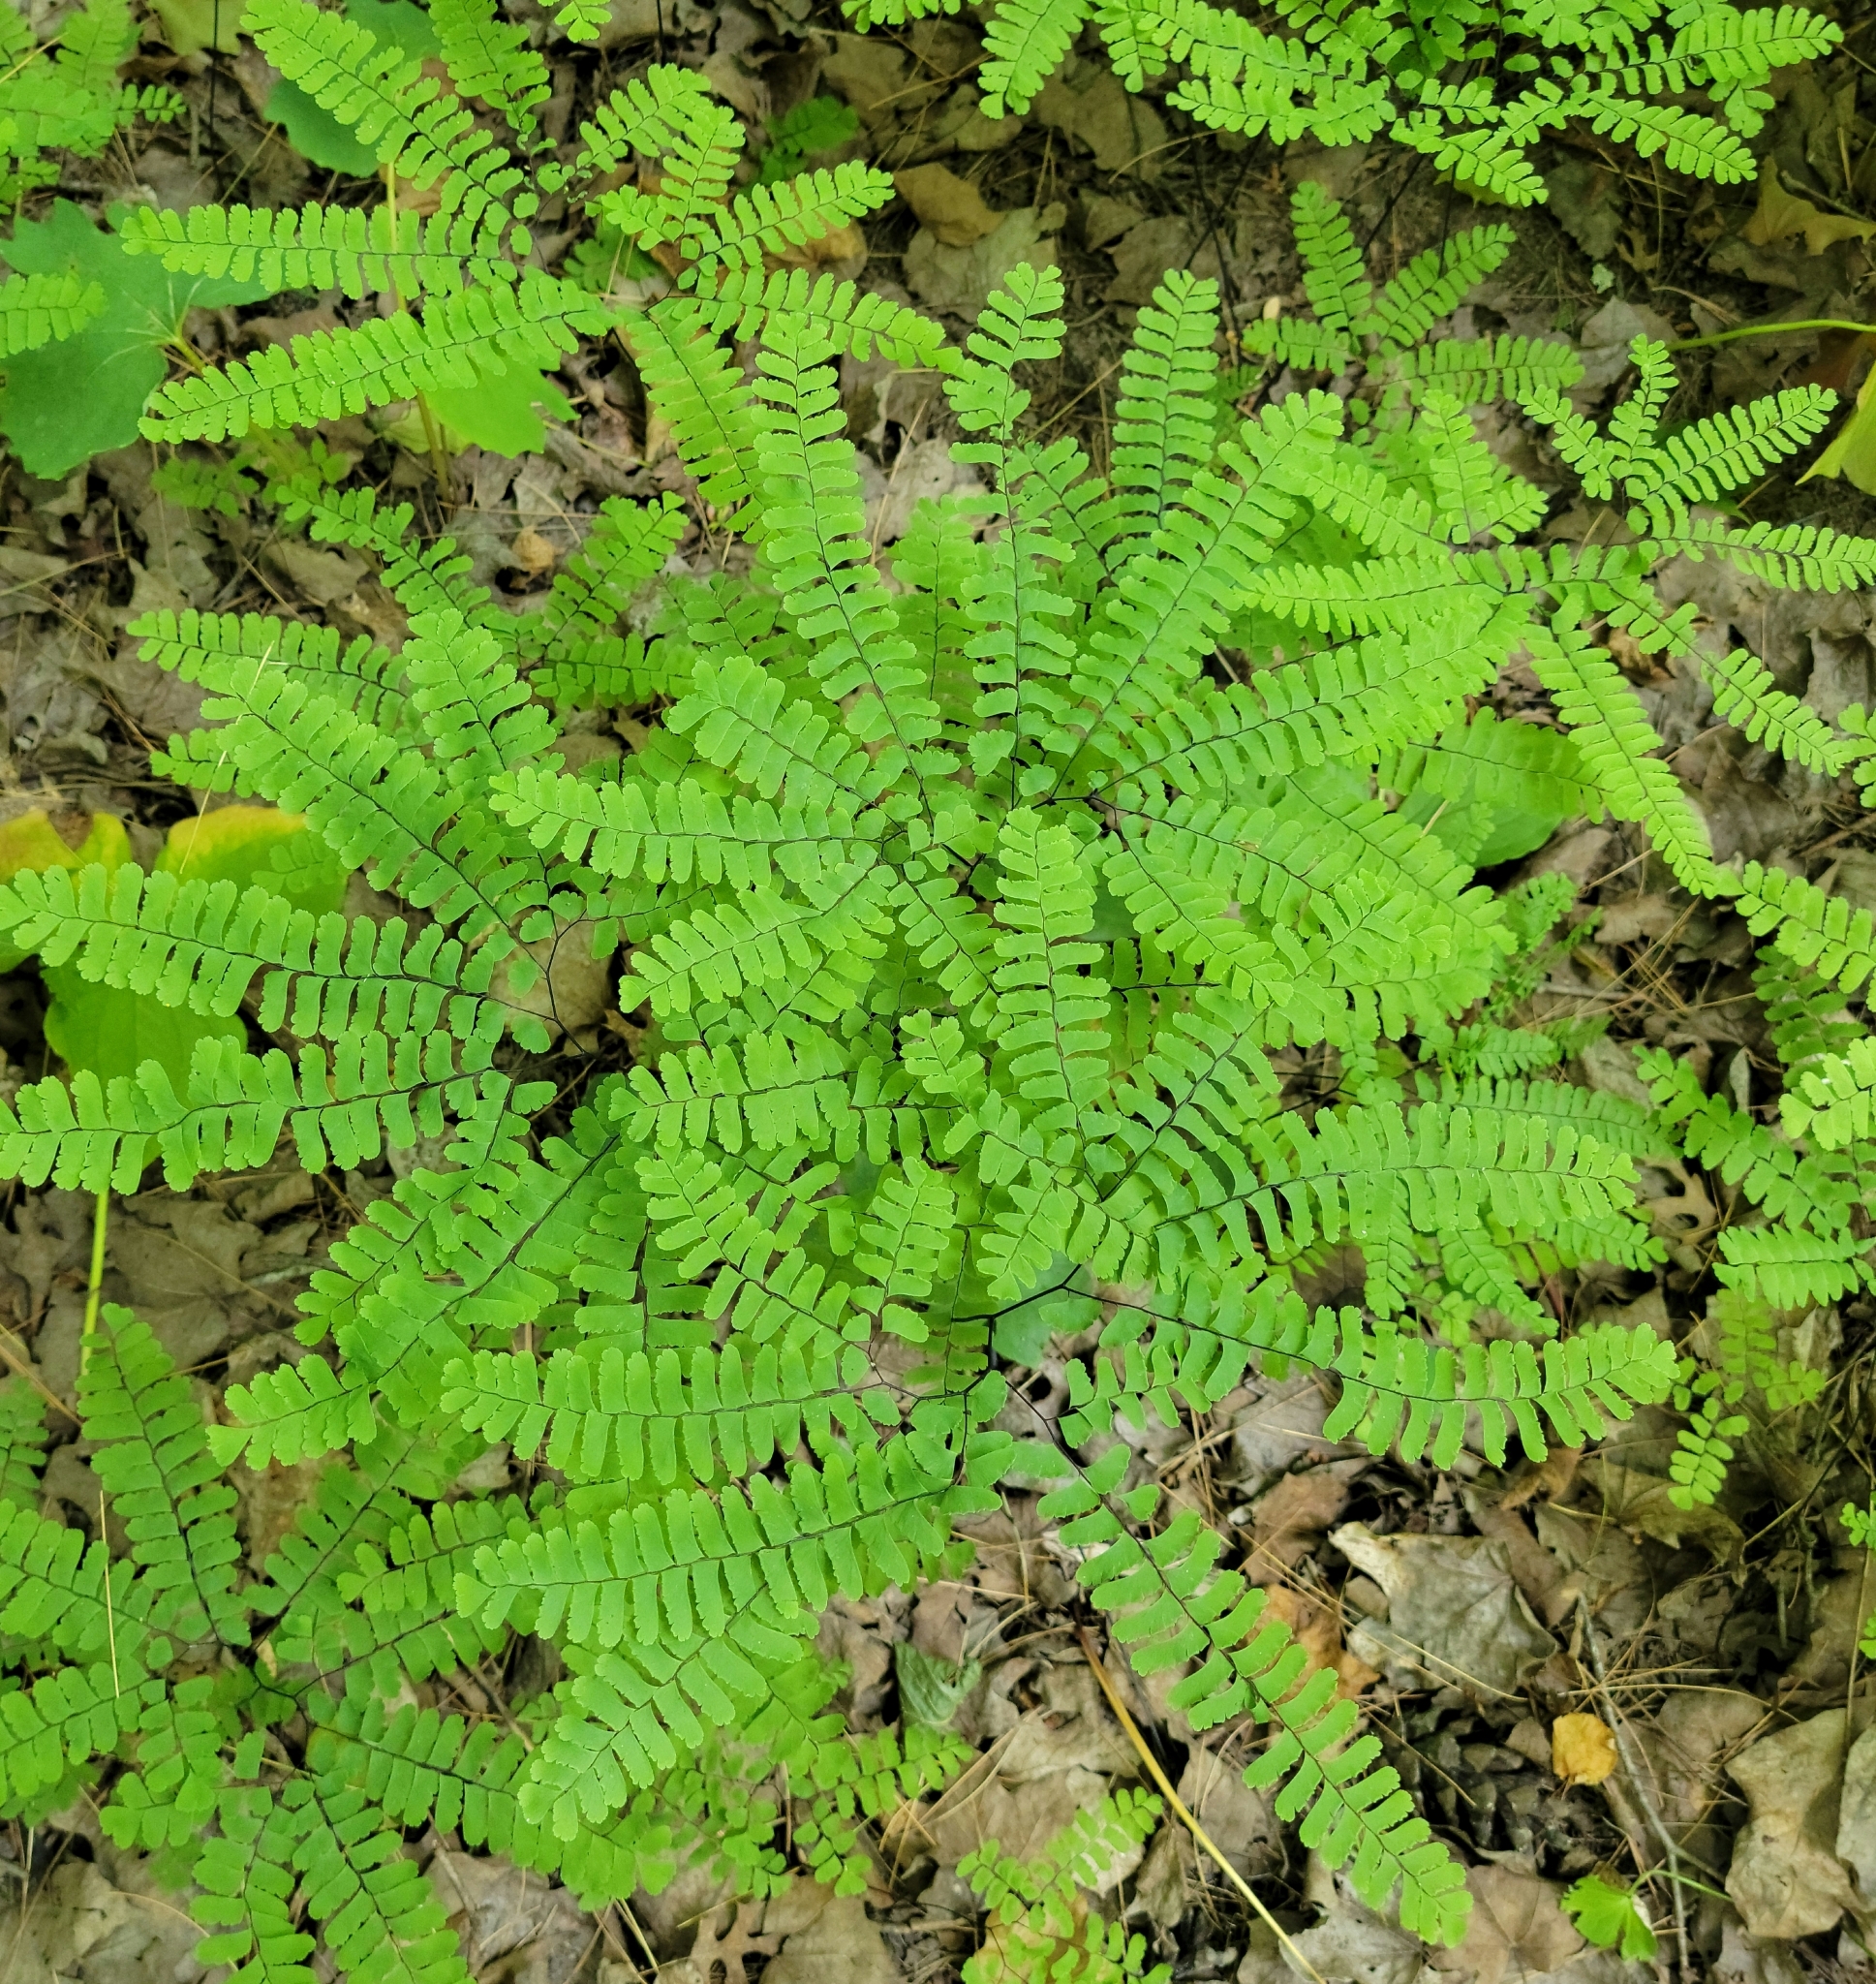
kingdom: Plantae
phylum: Tracheophyta
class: Polypodiopsida
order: Polypodiales
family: Pteridaceae
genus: Adiantum
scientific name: Adiantum pedatum
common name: Five-finger fern
